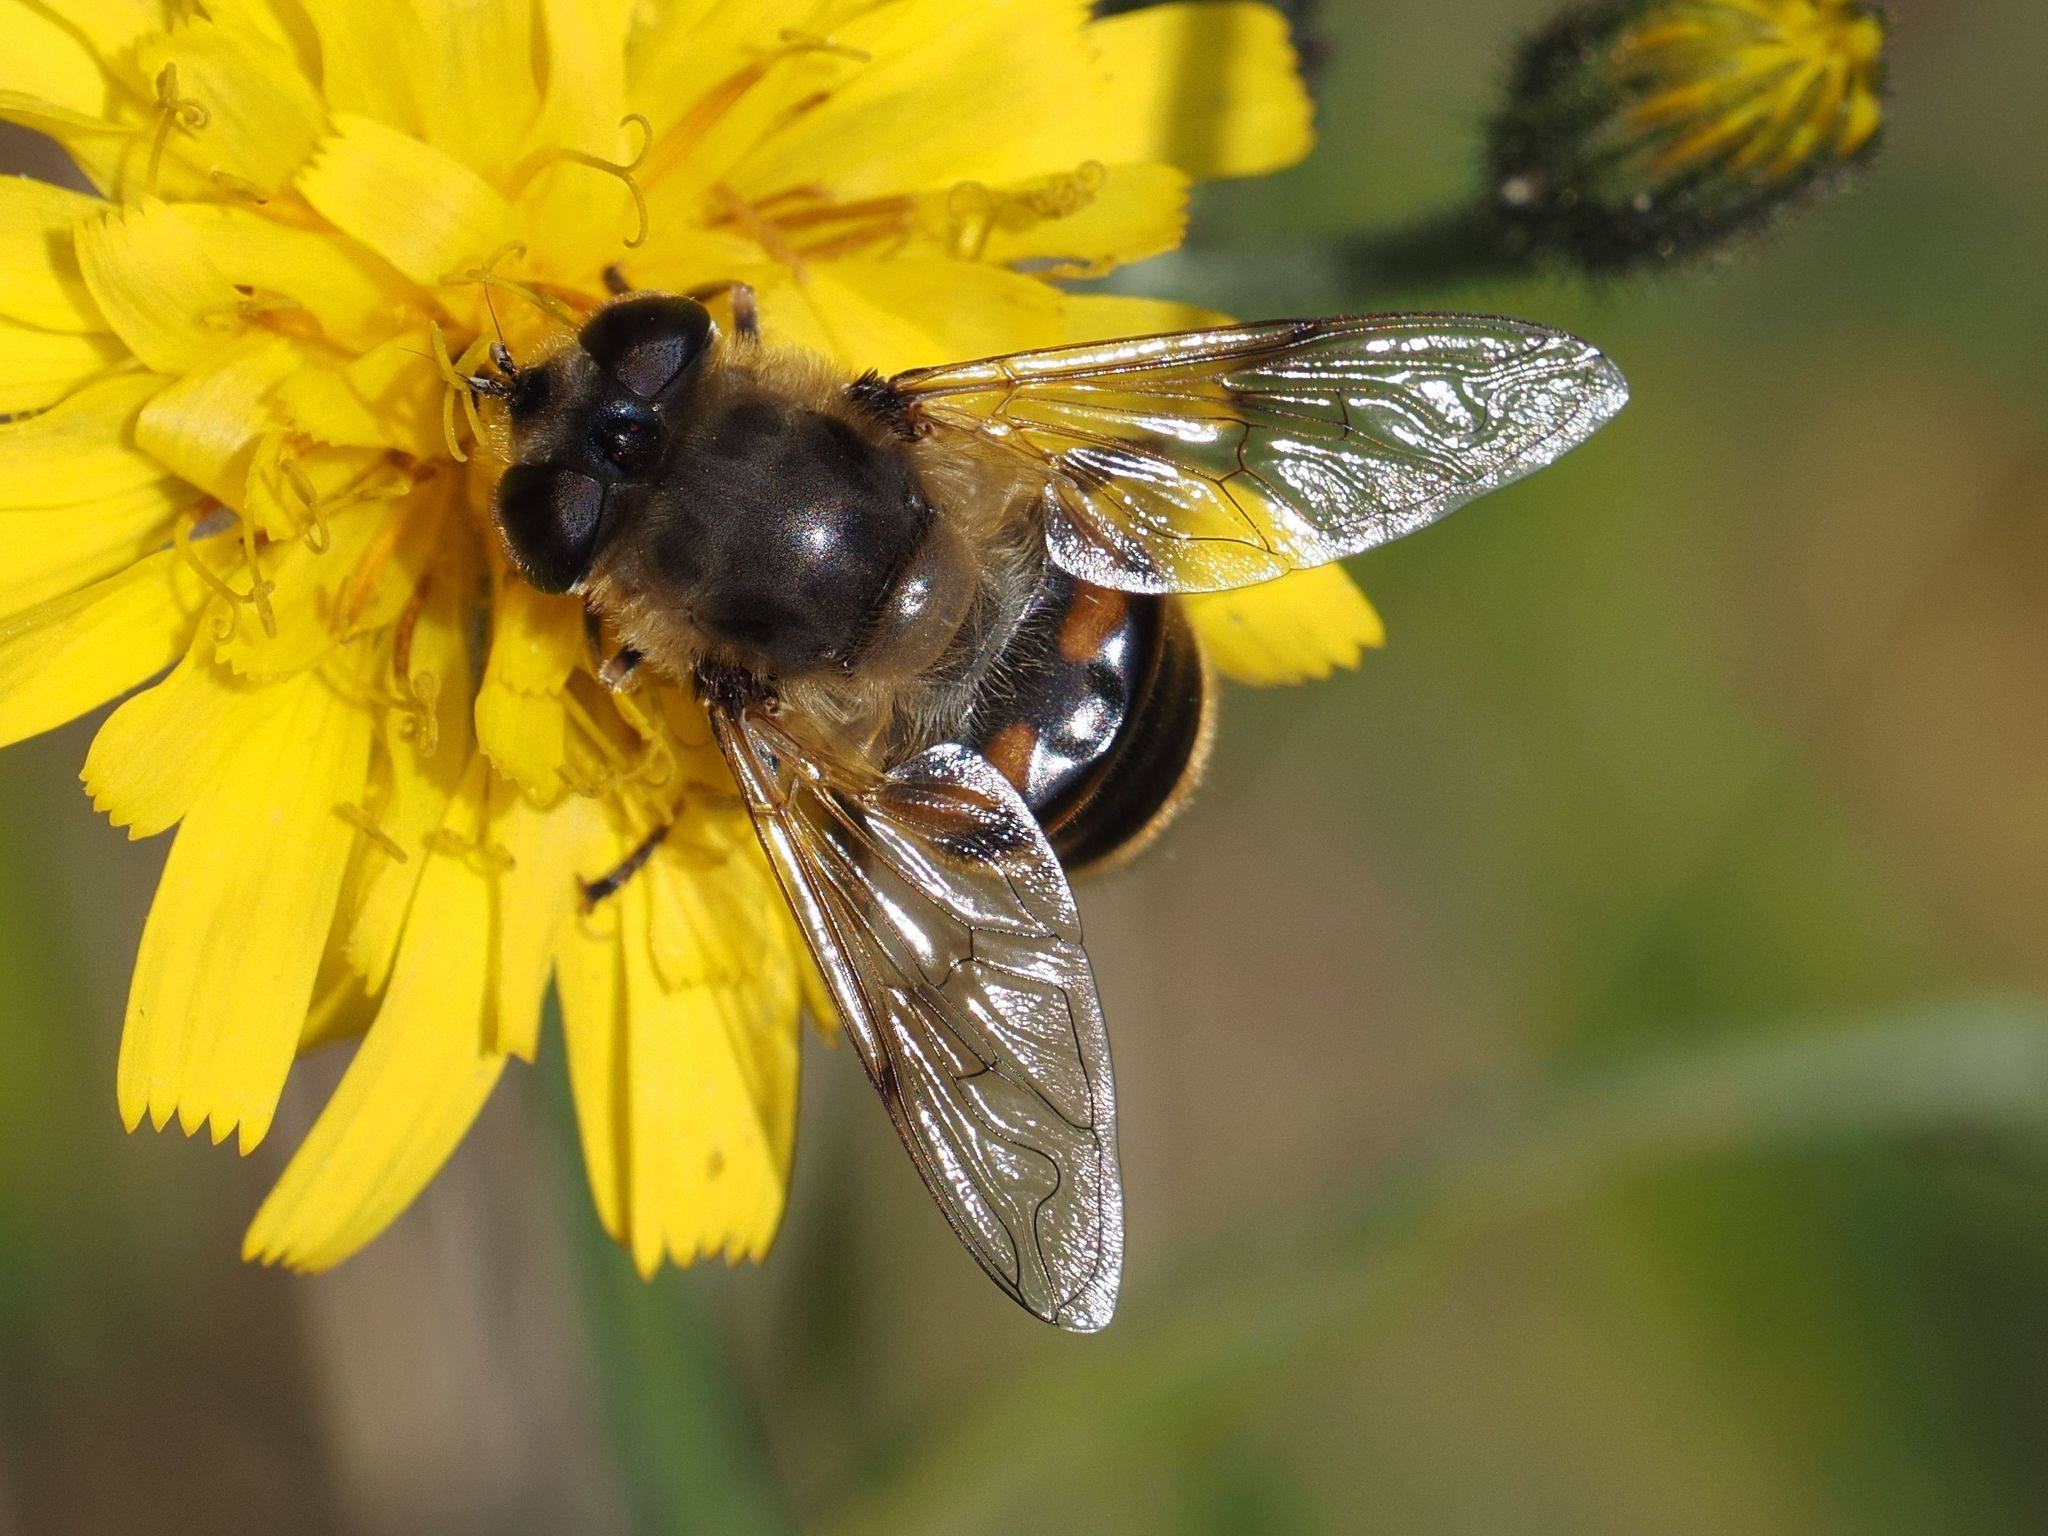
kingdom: Animalia
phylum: Arthropoda
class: Insecta
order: Diptera
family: Syrphidae
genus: Eristalis
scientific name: Eristalis tenax
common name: Drone fly
